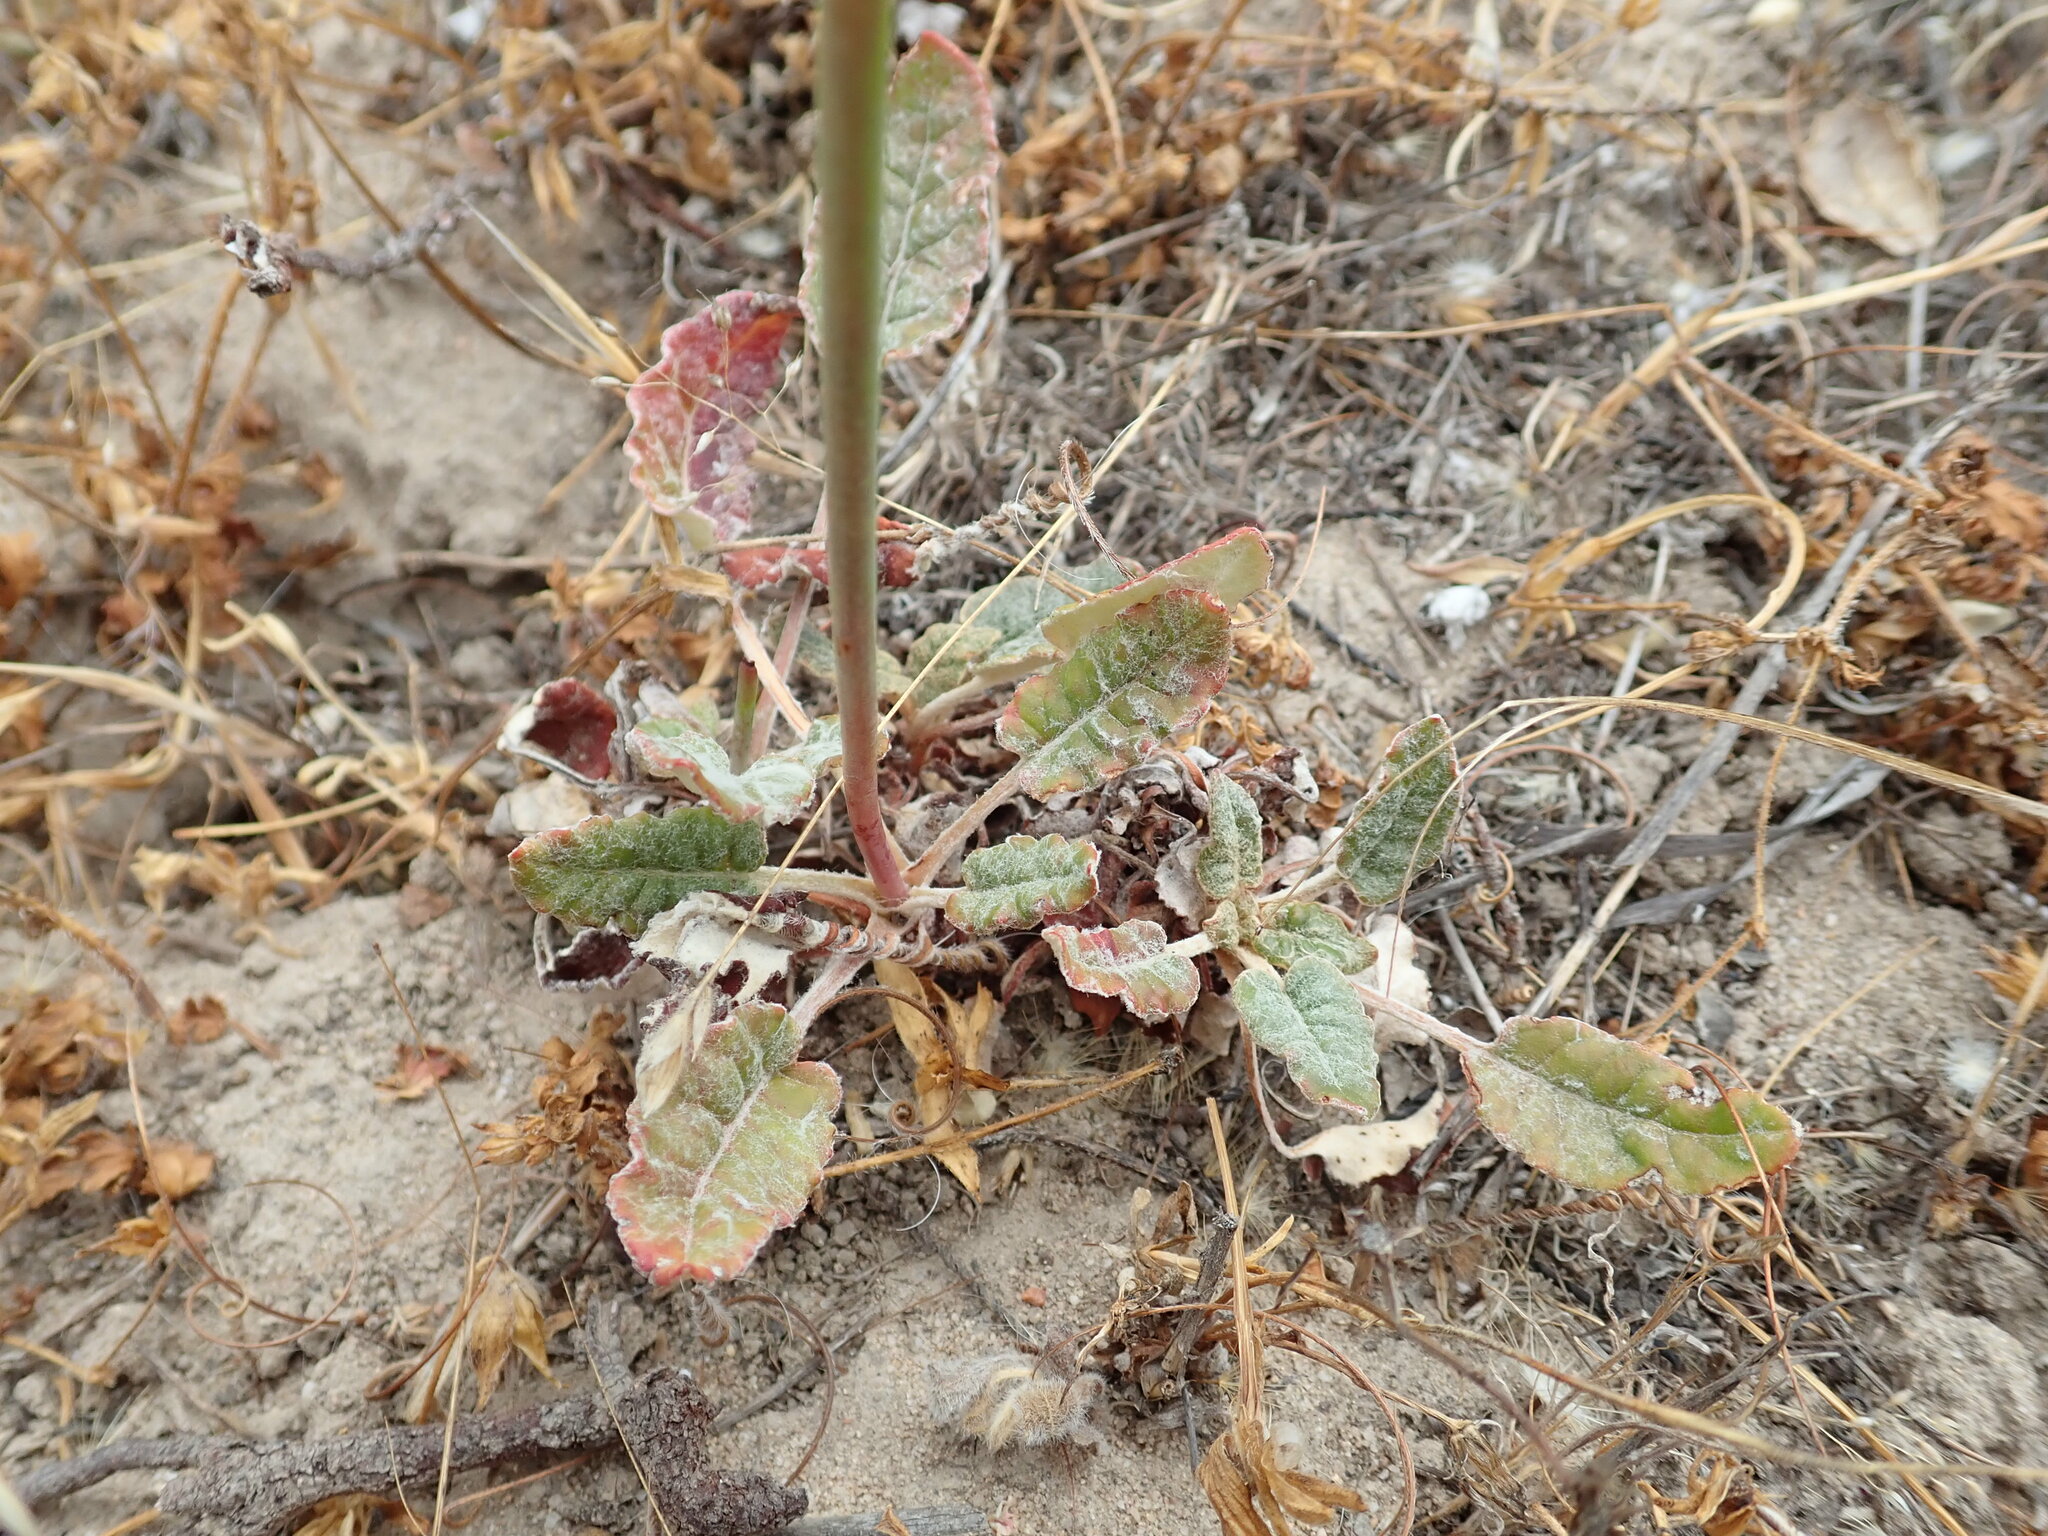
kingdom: Plantae
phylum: Tracheophyta
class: Magnoliopsida
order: Caryophyllales
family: Polygonaceae
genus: Eriogonum
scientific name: Eriogonum nudum
